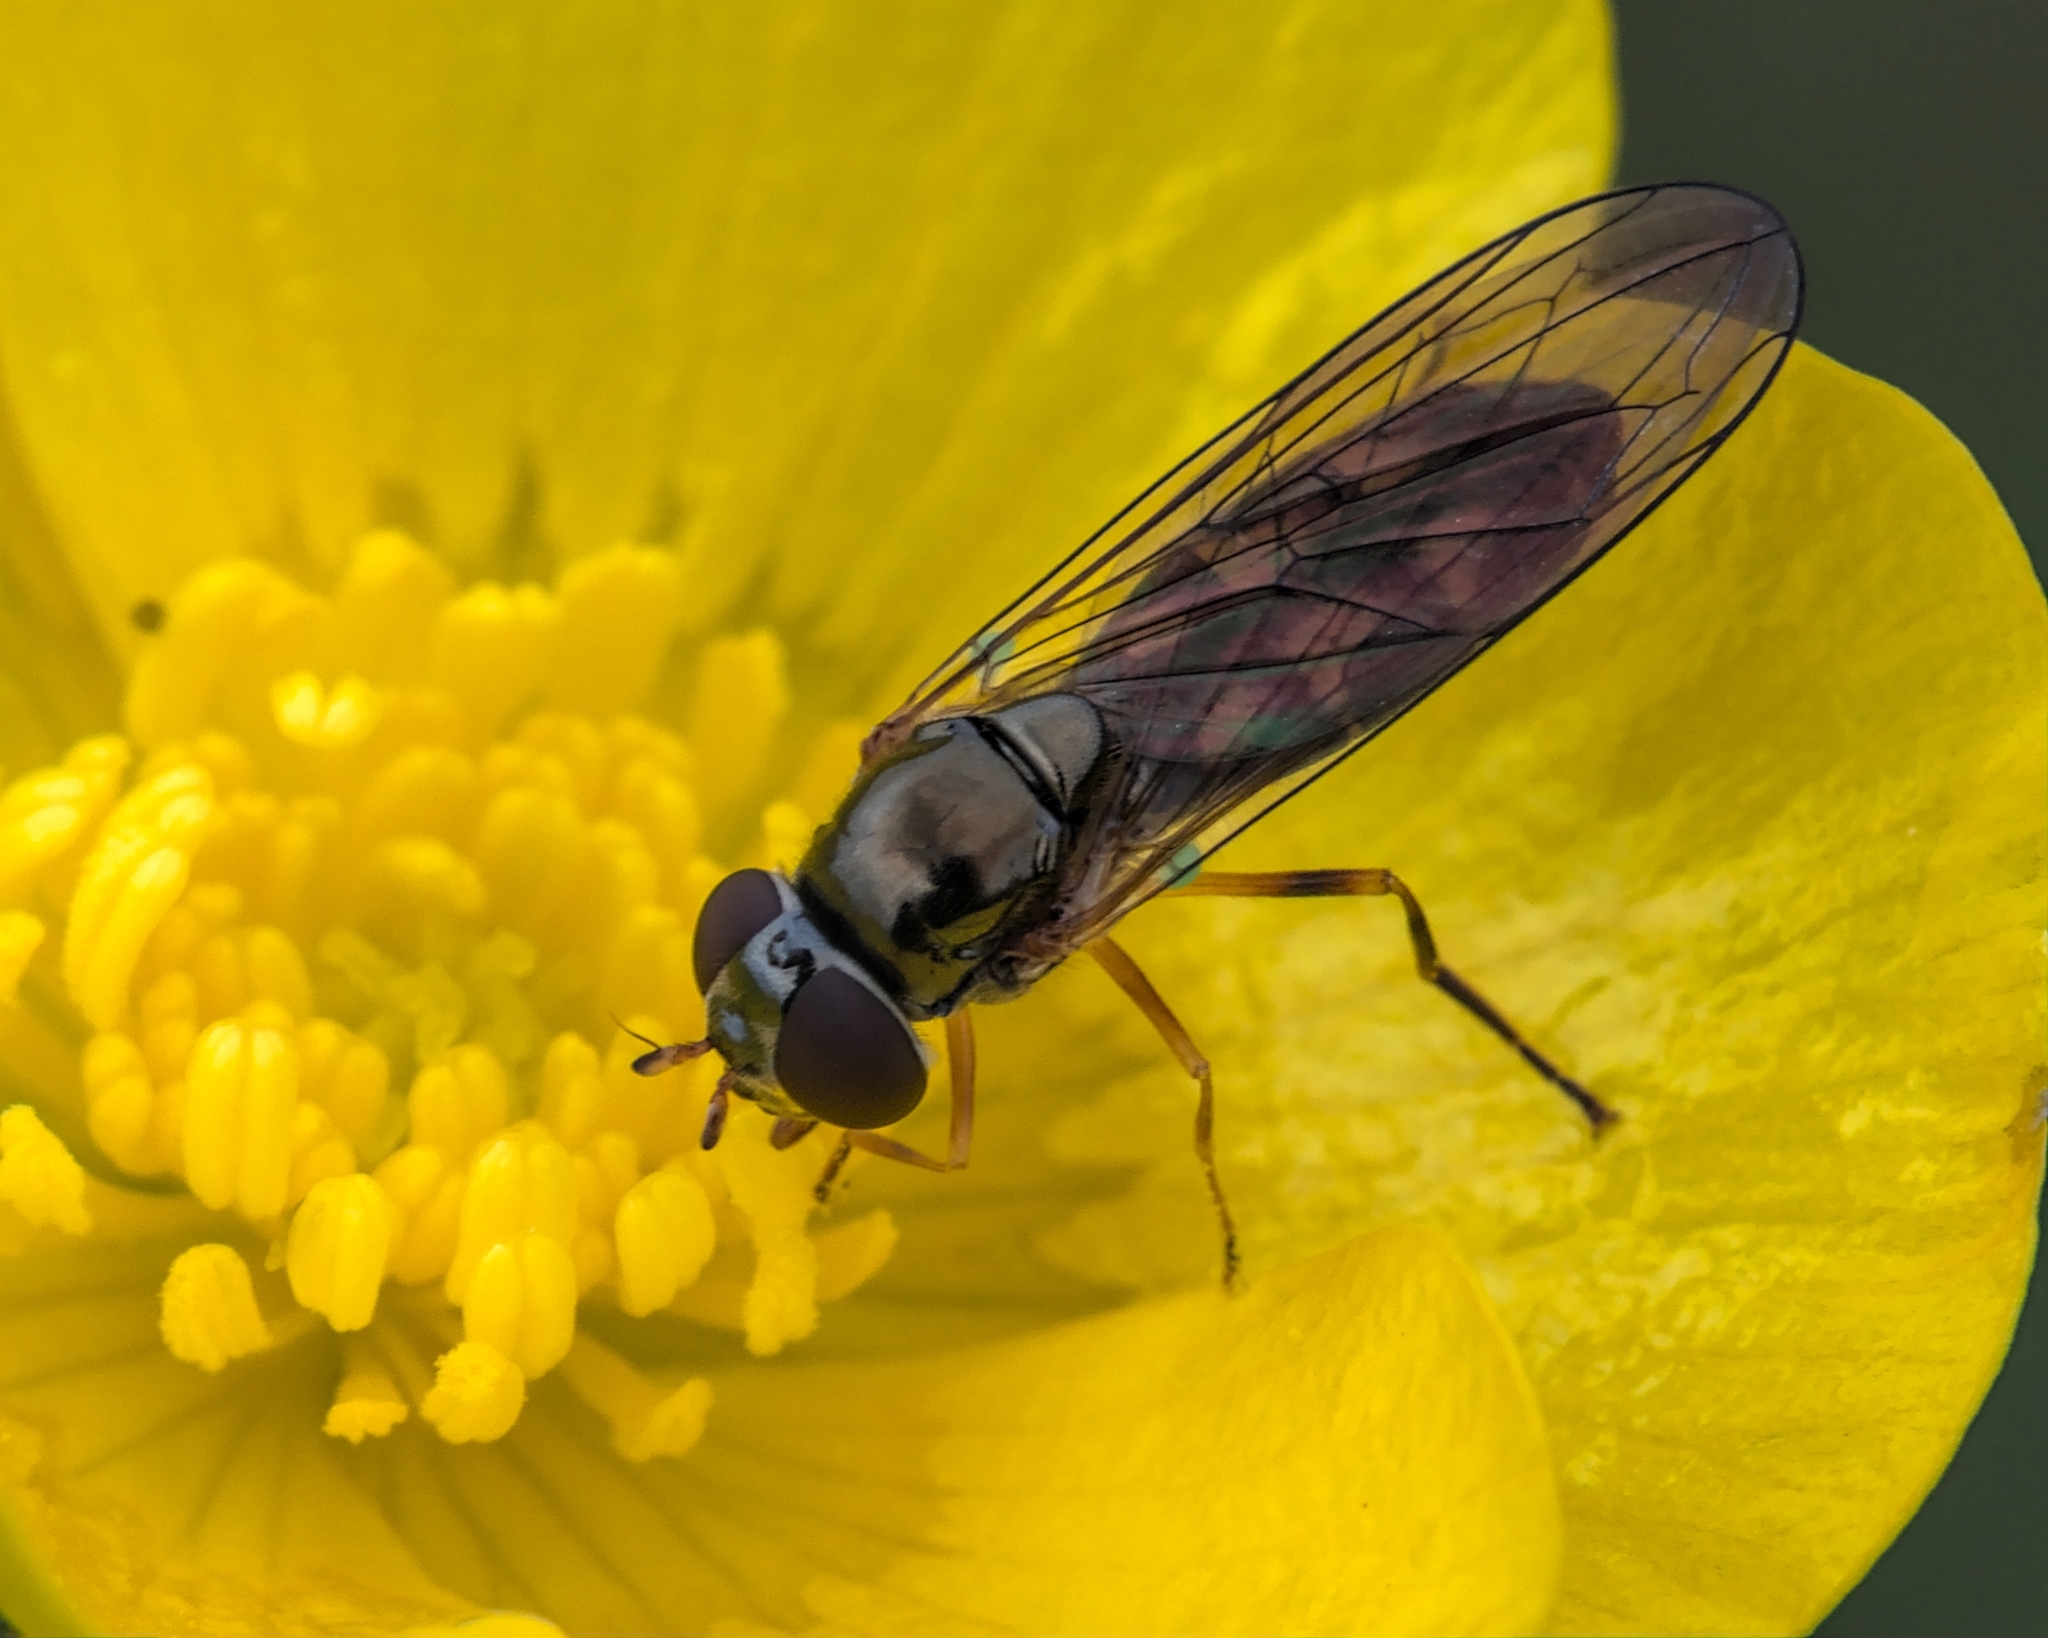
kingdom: Animalia
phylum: Arthropoda
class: Insecta
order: Diptera
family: Syrphidae
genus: Melanostoma
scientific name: Melanostoma scalare
